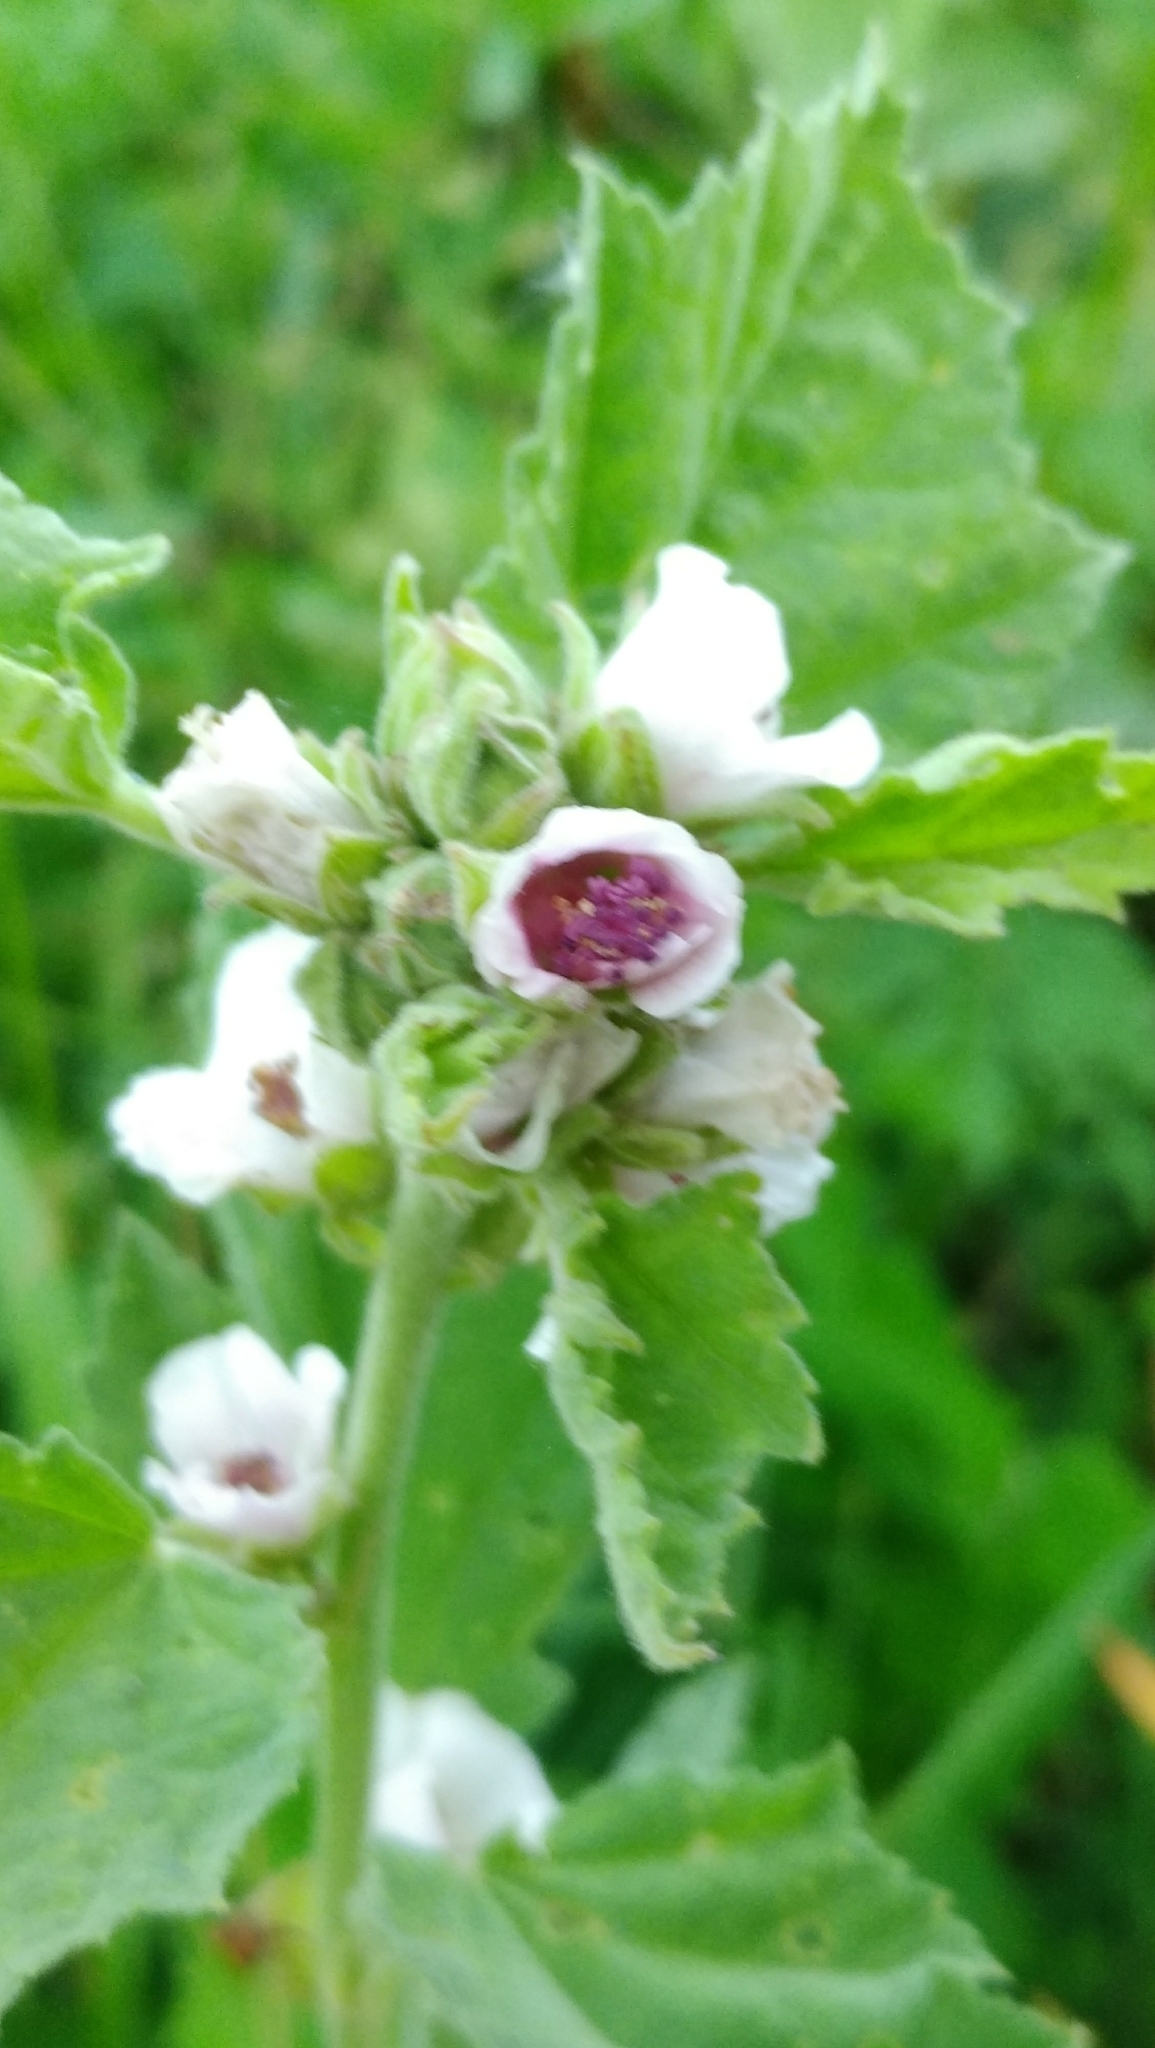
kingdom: Plantae
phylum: Tracheophyta
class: Magnoliopsida
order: Malvales
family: Malvaceae
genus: Althaea
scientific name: Althaea officinalis
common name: Marsh-mallow
